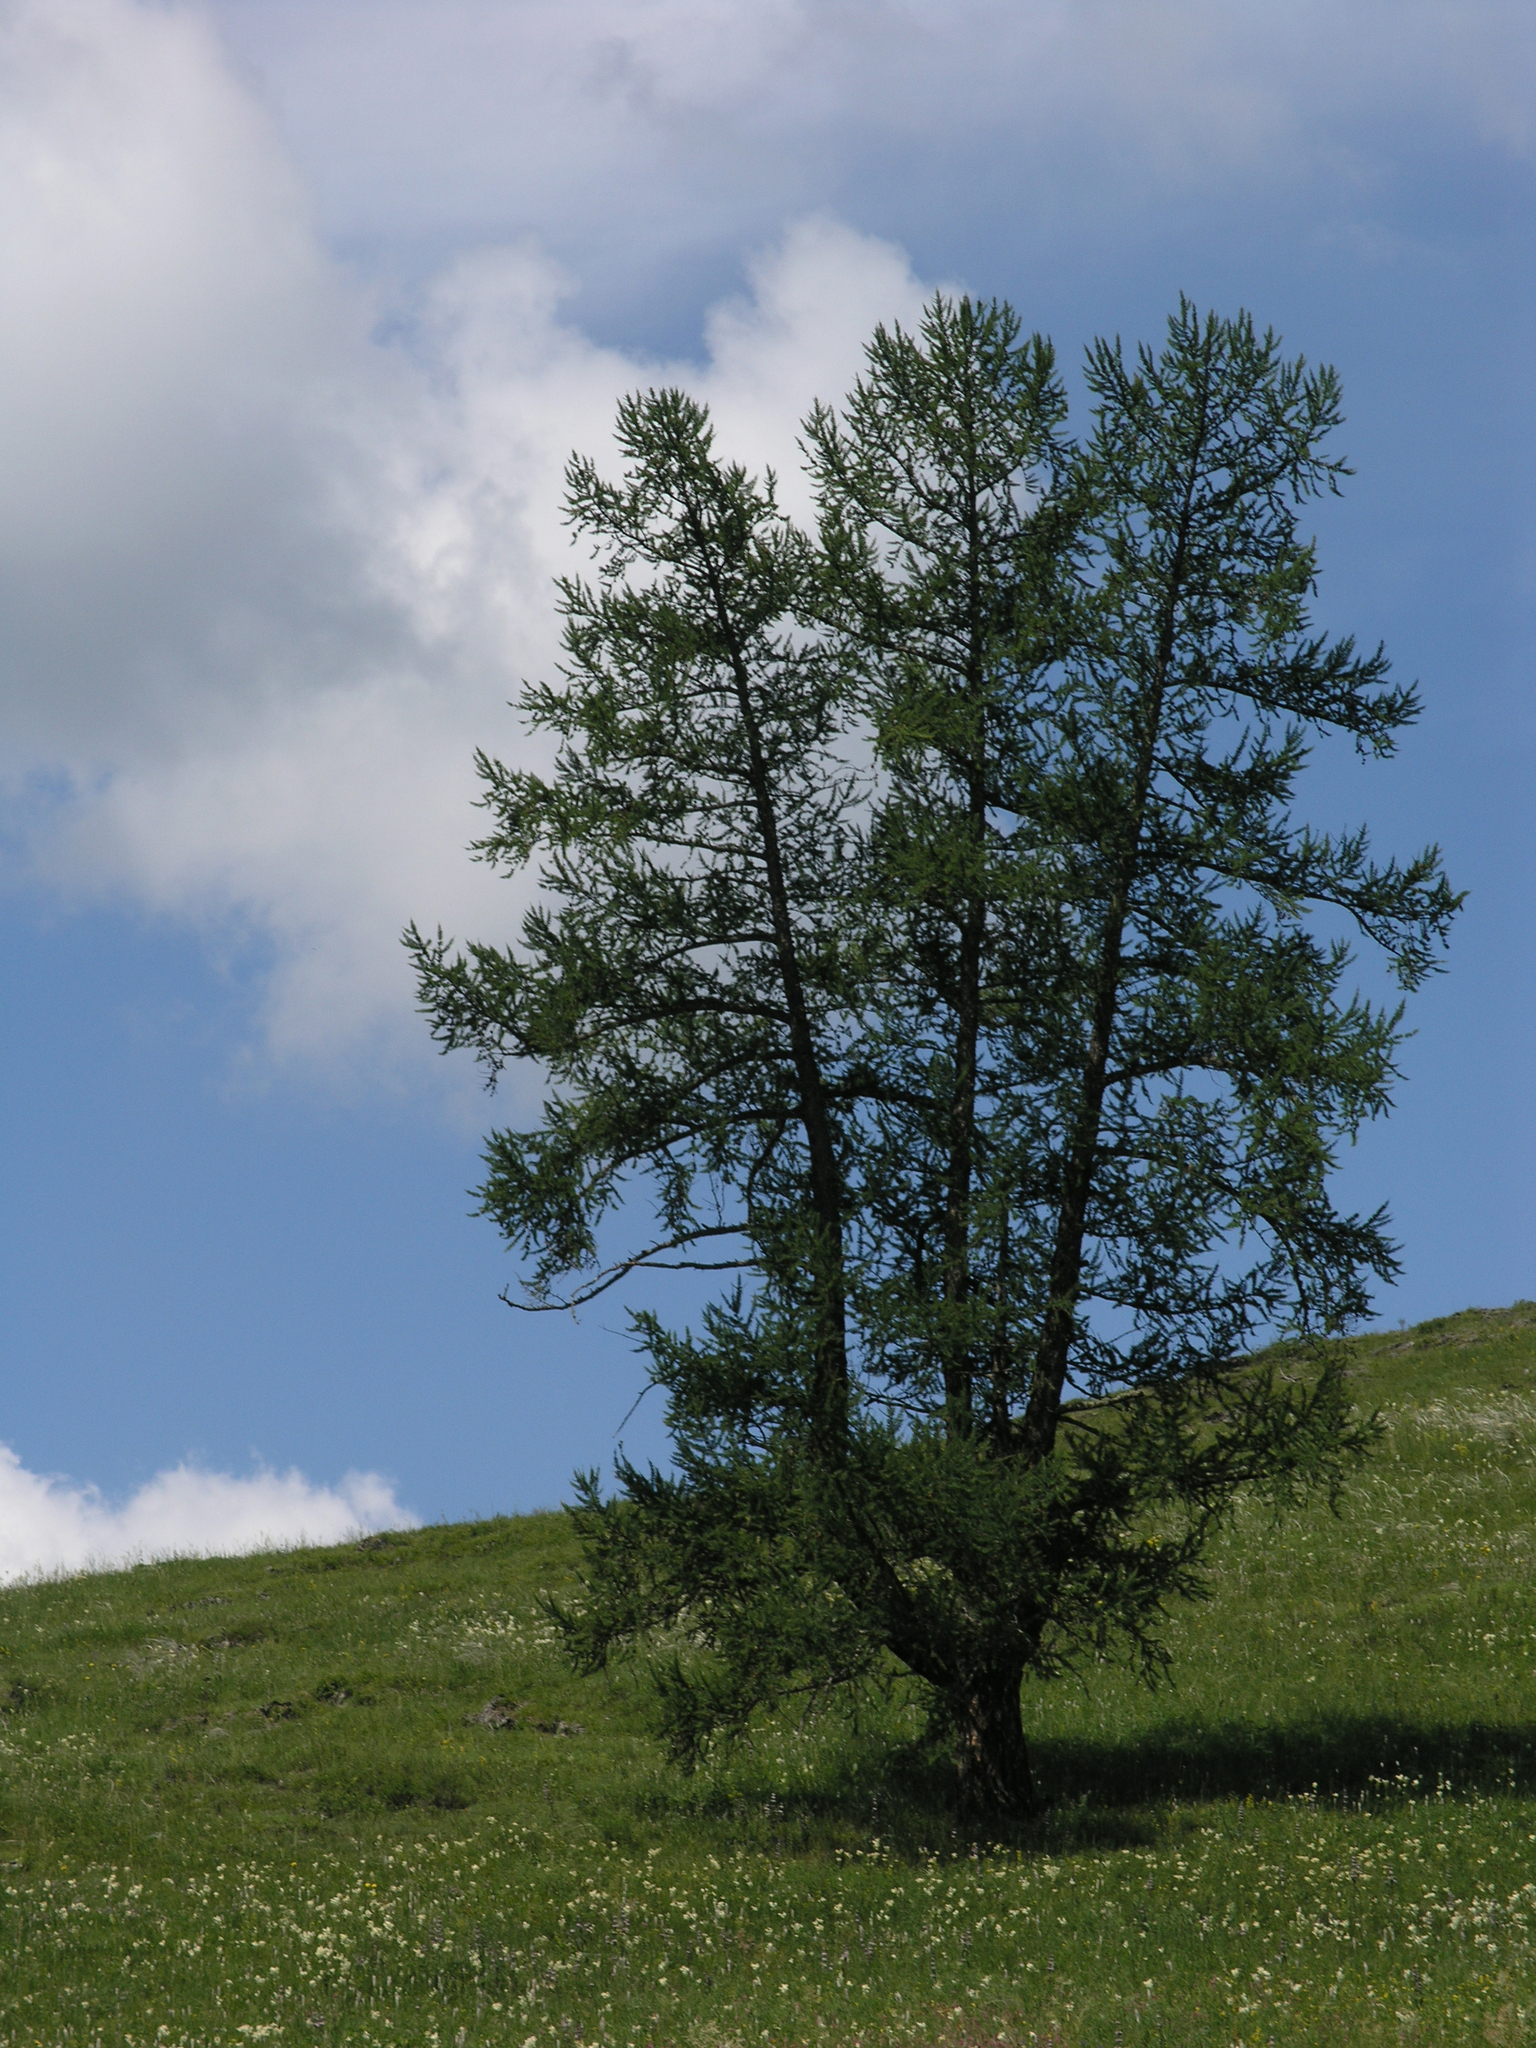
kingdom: Plantae
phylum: Tracheophyta
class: Pinopsida
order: Pinales
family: Pinaceae
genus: Larix
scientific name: Larix sibirica
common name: Siberian larch
